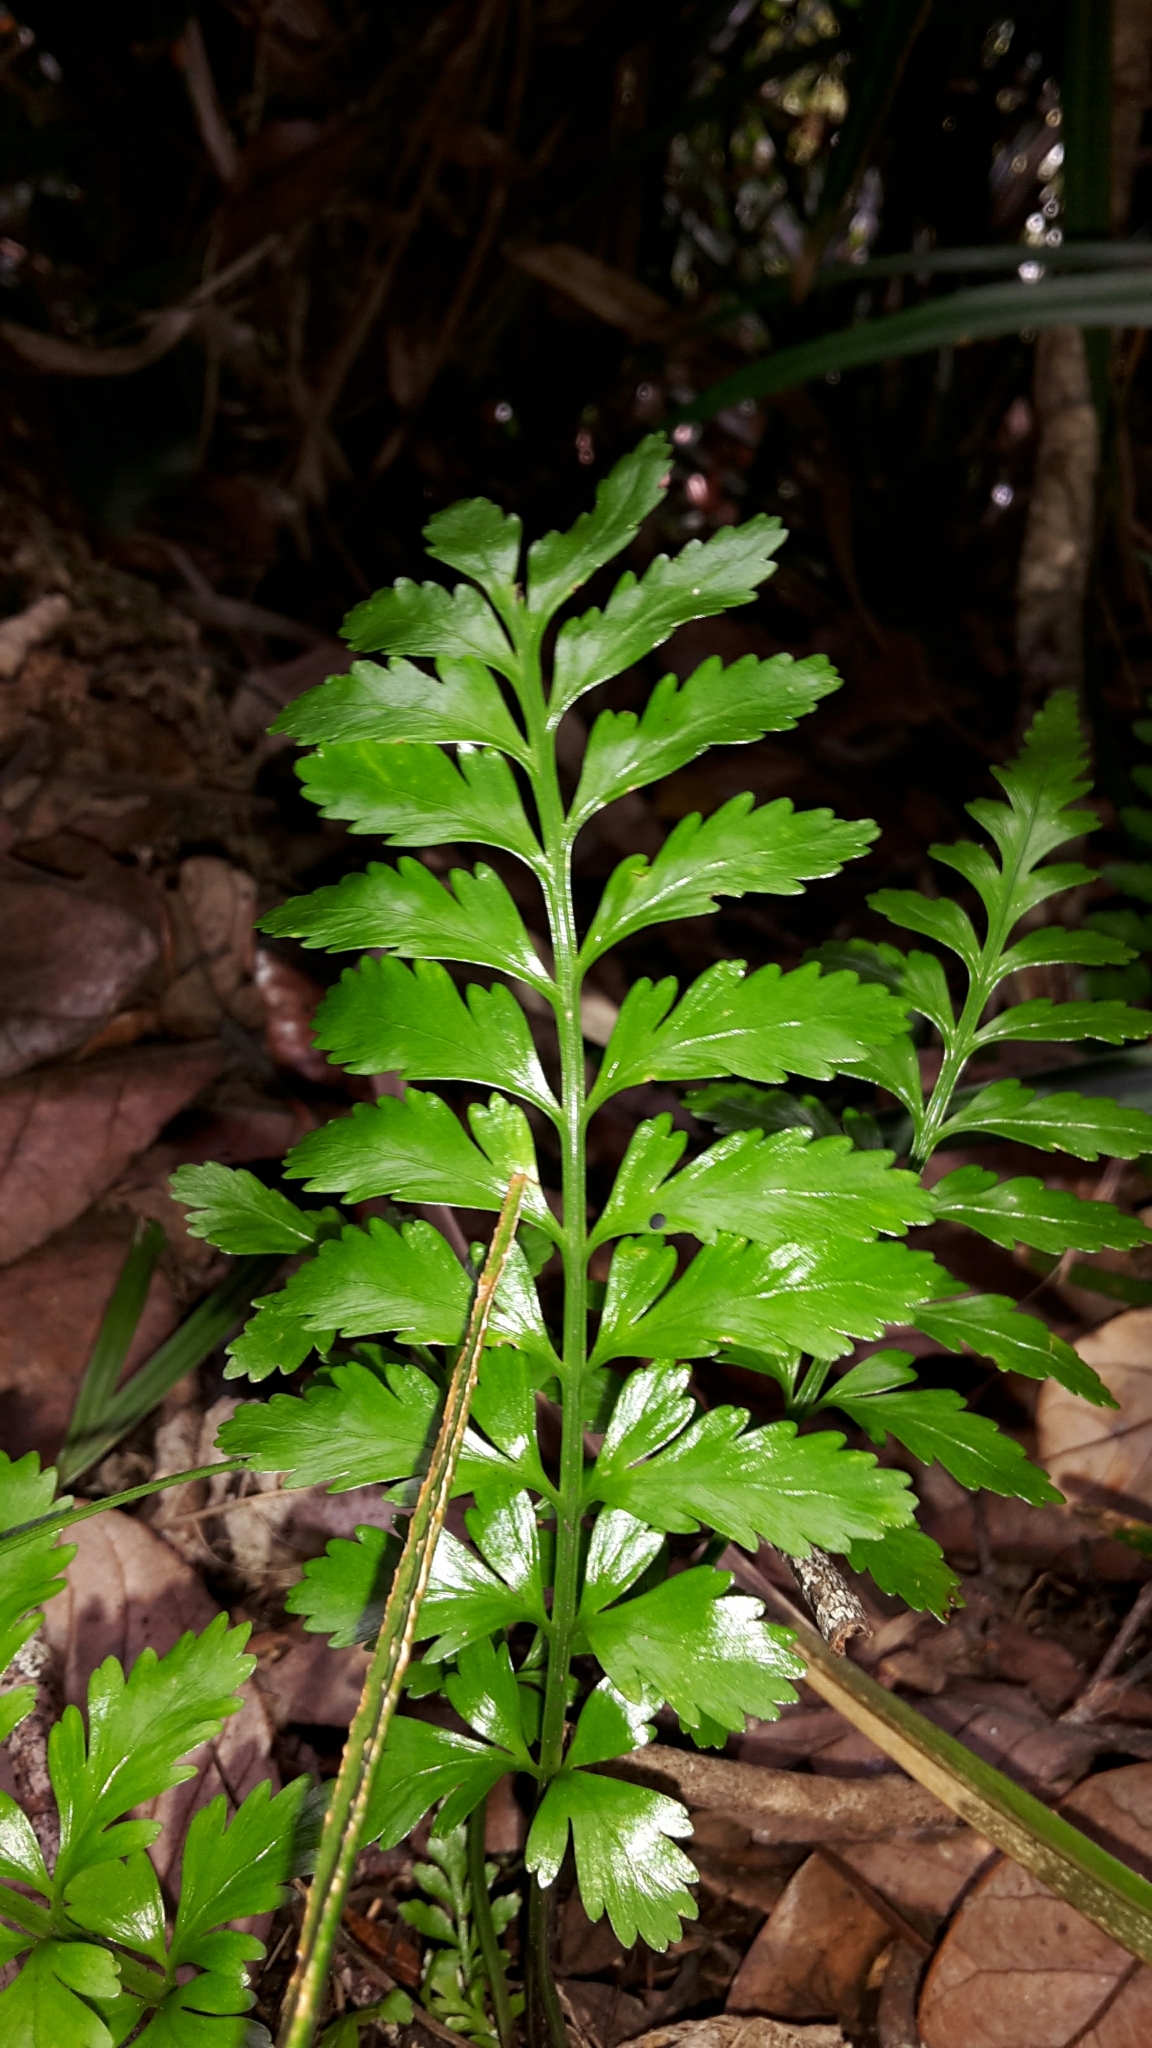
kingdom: Plantae
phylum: Tracheophyta
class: Polypodiopsida
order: Polypodiales
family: Aspleniaceae
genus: Asplenium
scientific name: Asplenium lamprophyllum
